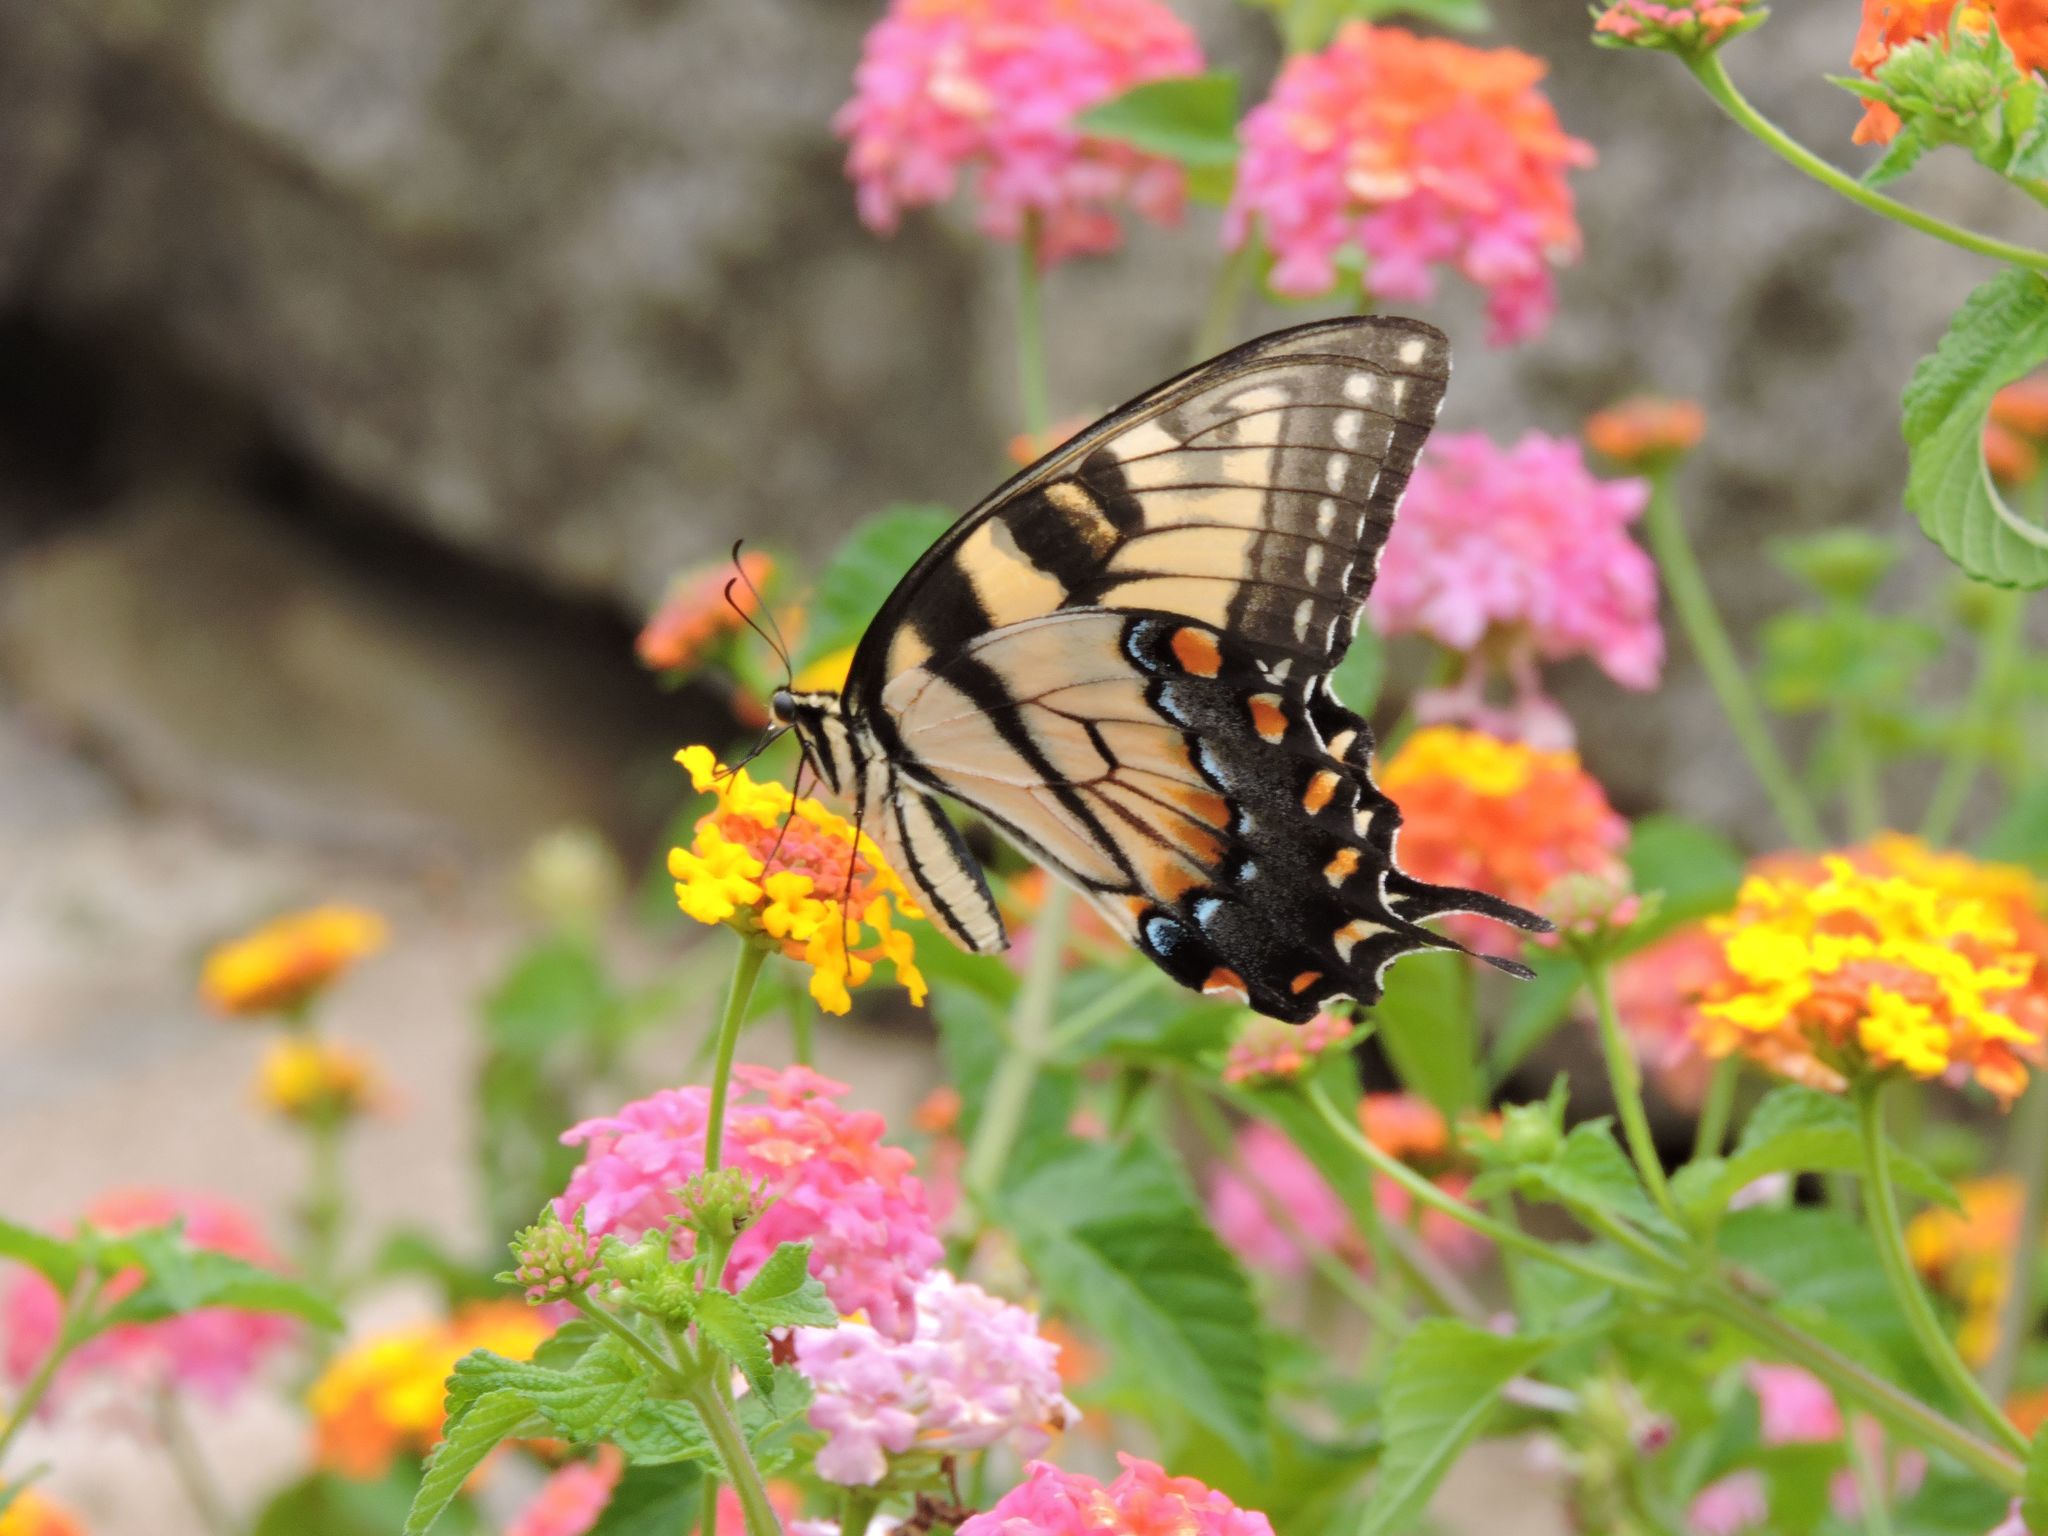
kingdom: Animalia
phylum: Arthropoda
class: Insecta
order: Lepidoptera
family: Papilionidae
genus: Papilio
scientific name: Papilio glaucus
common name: Tiger swallowtail
